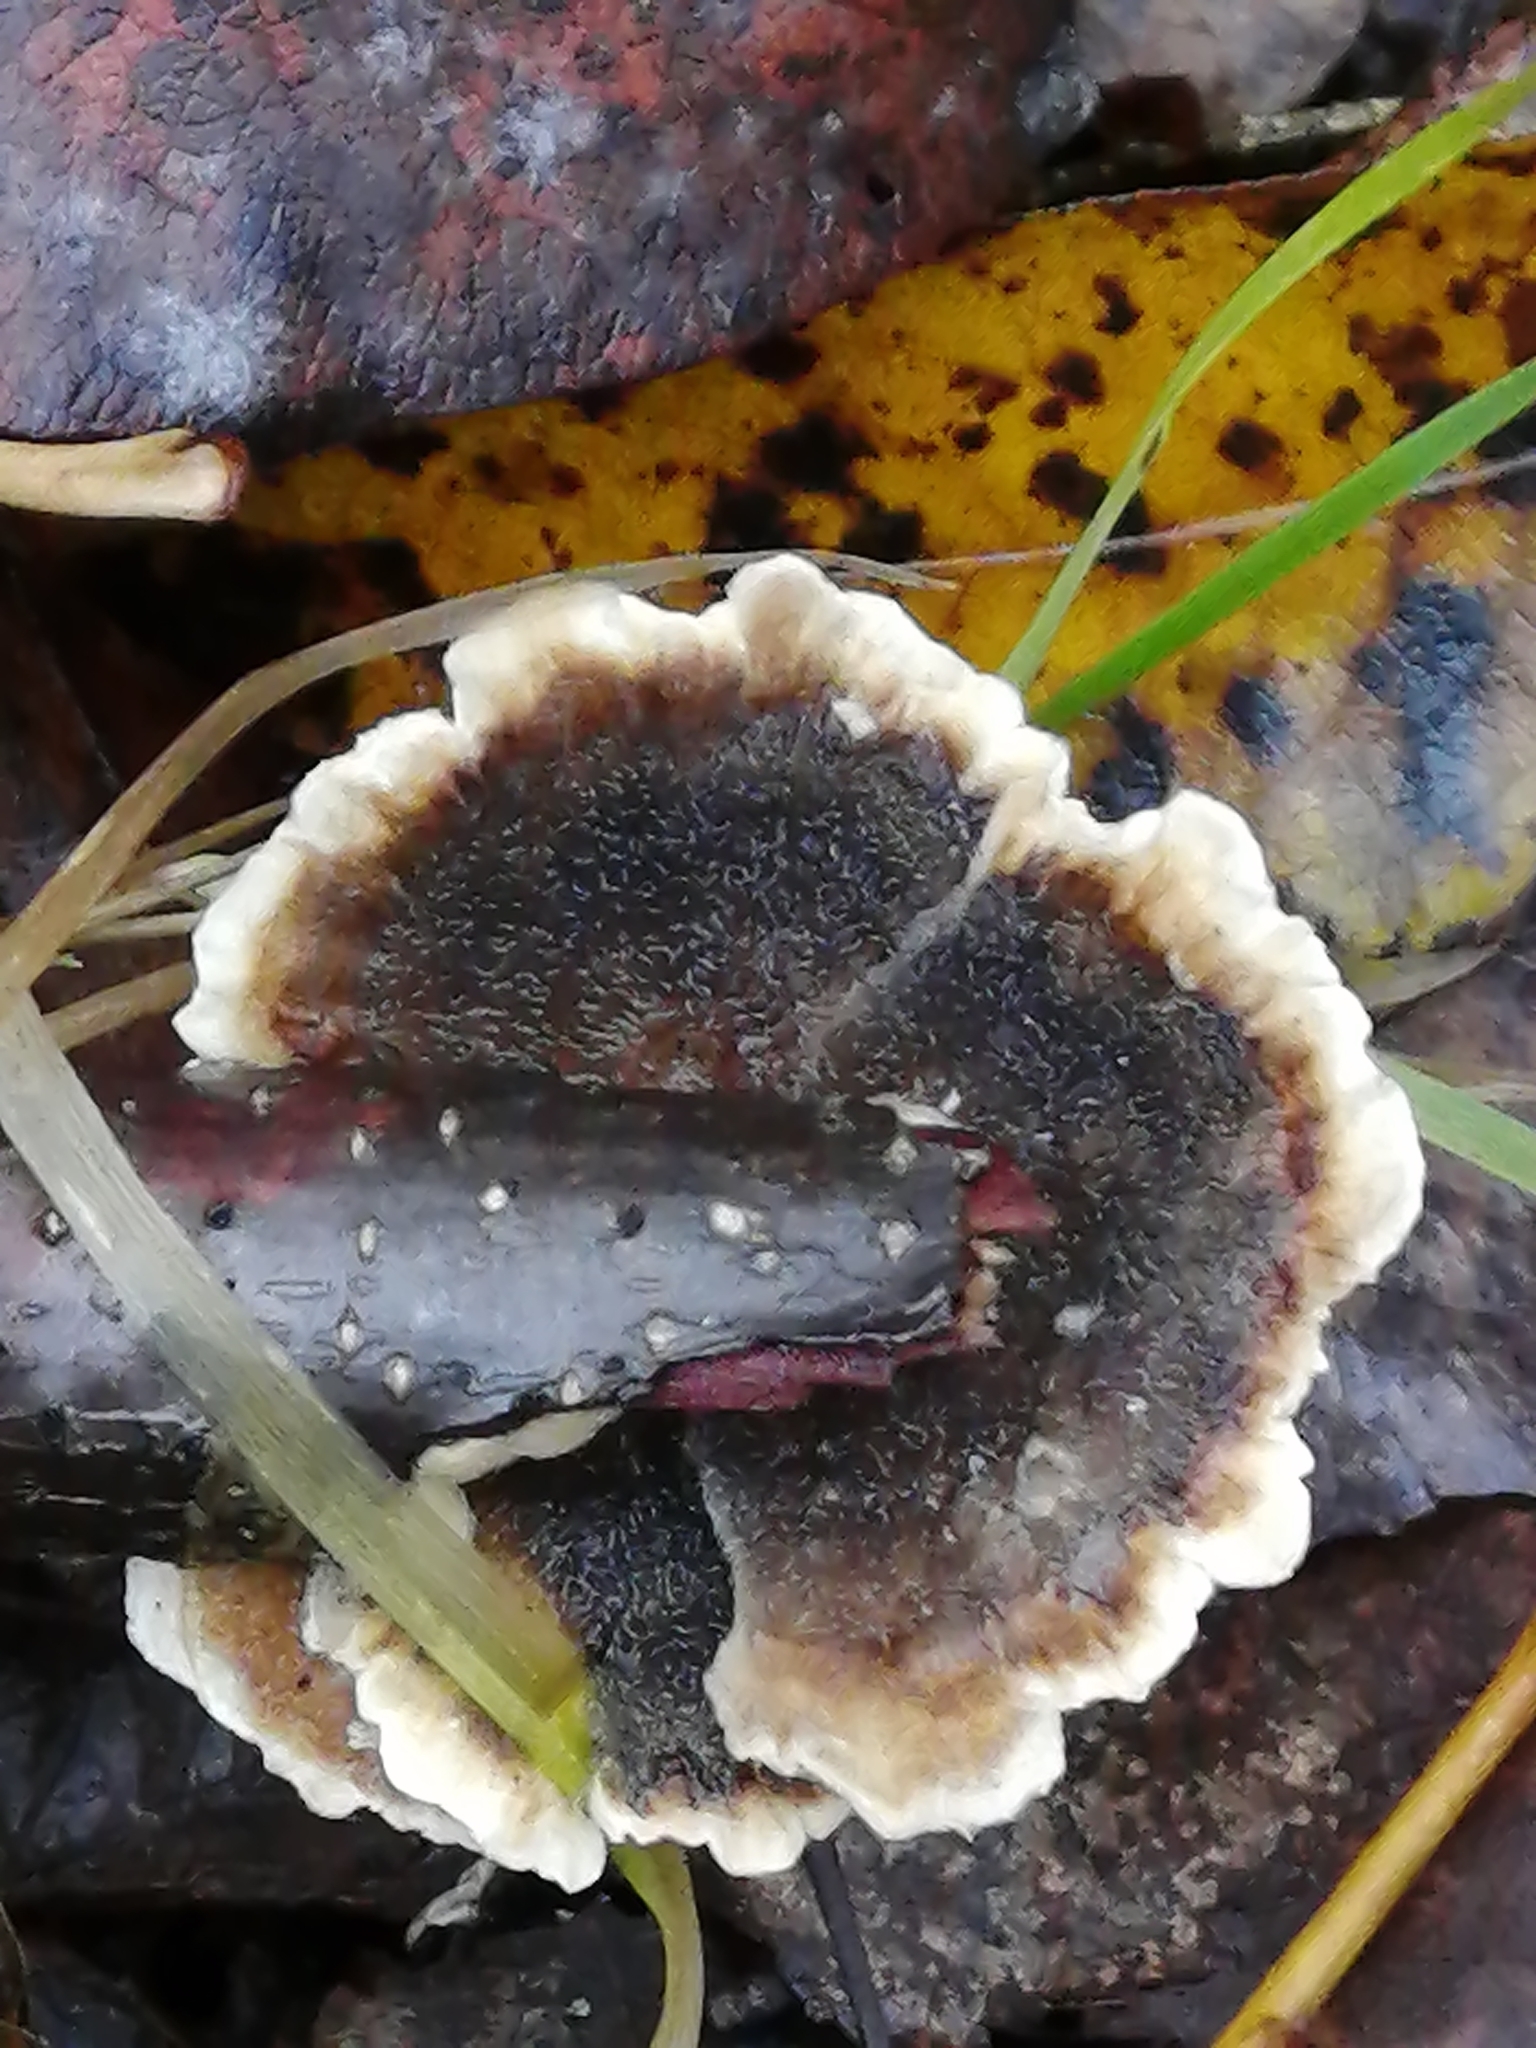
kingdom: Fungi
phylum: Basidiomycota
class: Agaricomycetes
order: Polyporales
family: Polyporaceae
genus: Trametes
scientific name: Trametes versicolor
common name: Turkeytail
